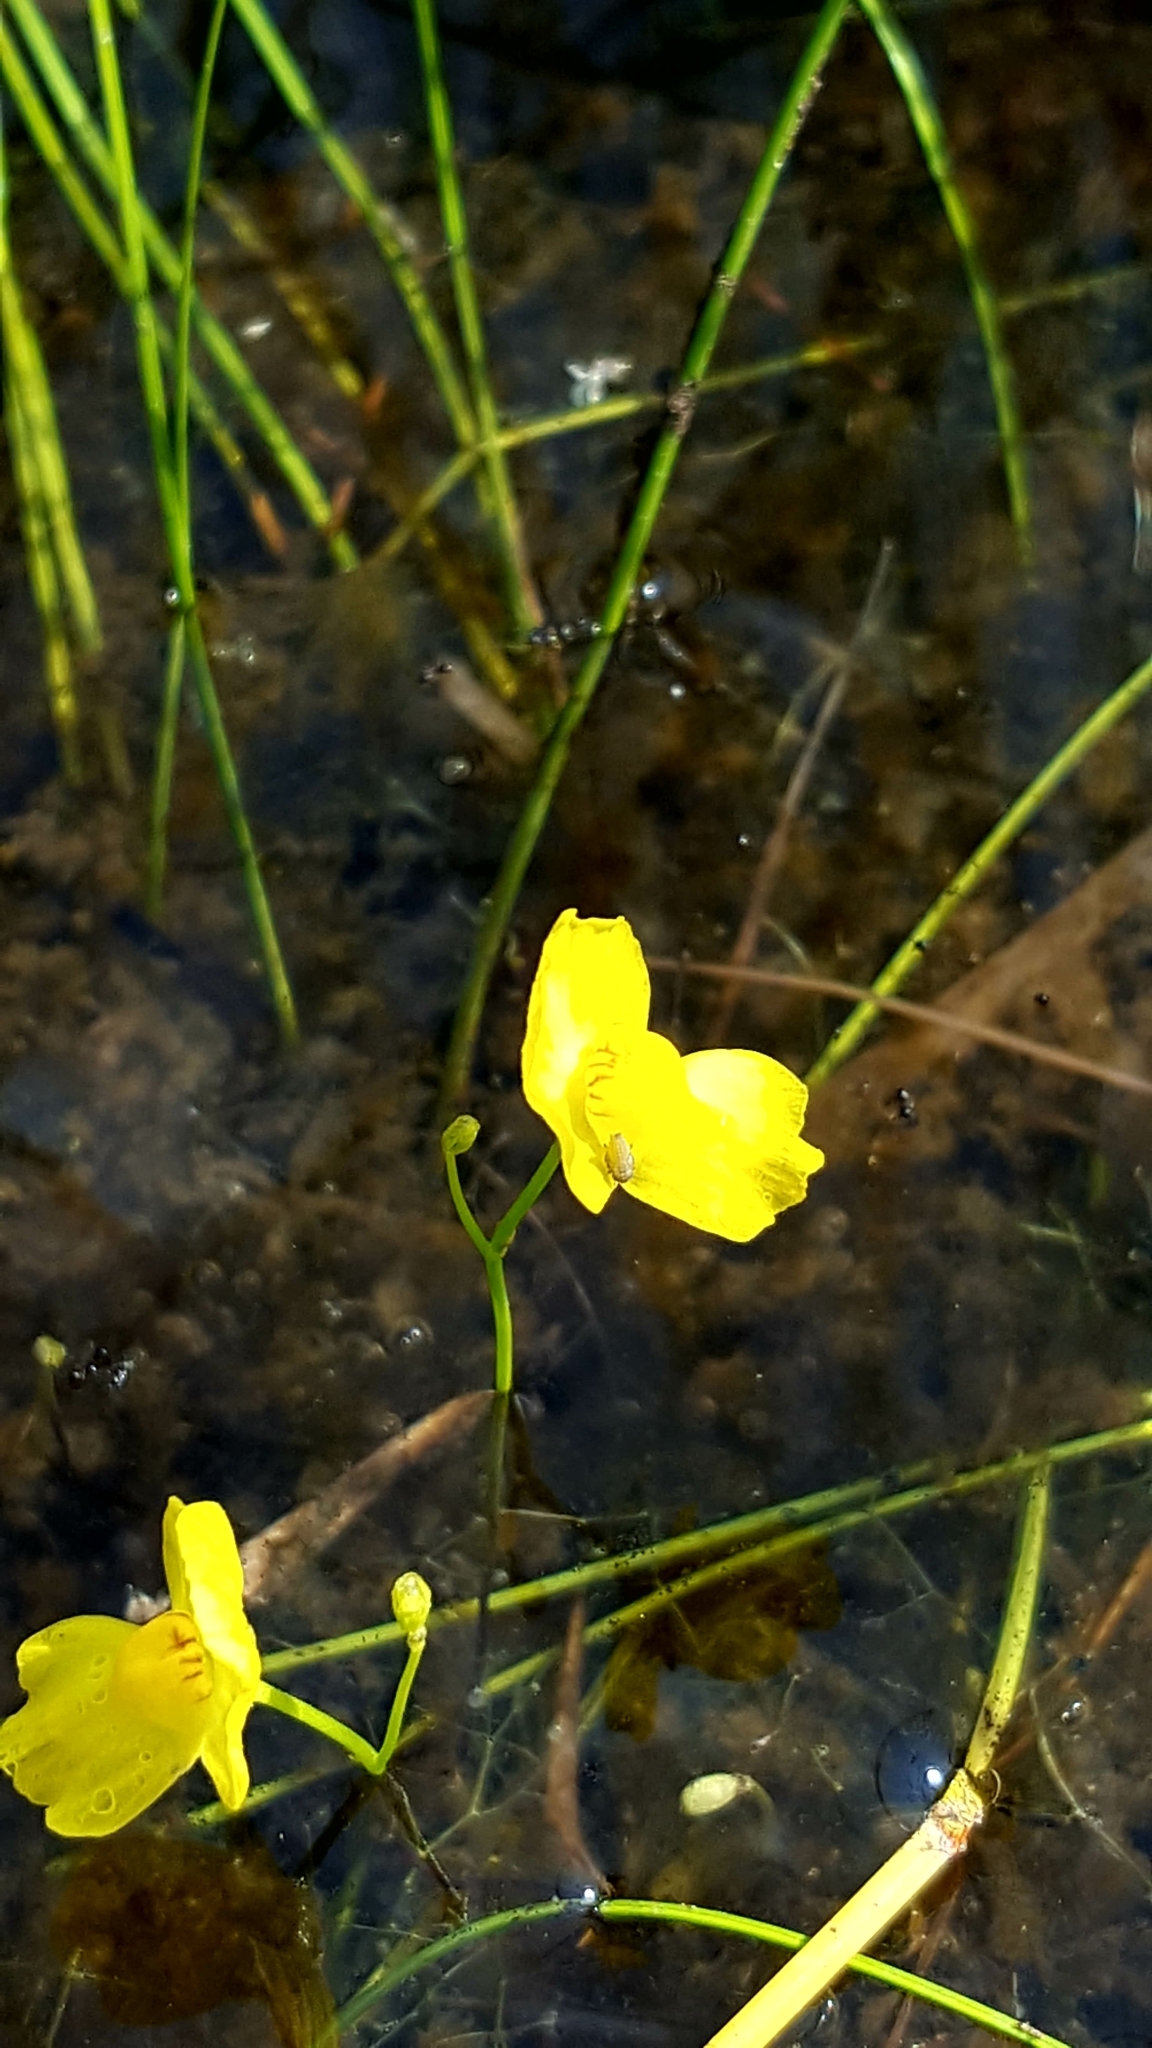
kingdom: Plantae
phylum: Tracheophyta
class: Magnoliopsida
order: Lamiales
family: Lentibulariaceae
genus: Utricularia
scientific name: Utricularia gibba
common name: Humped bladderwort
